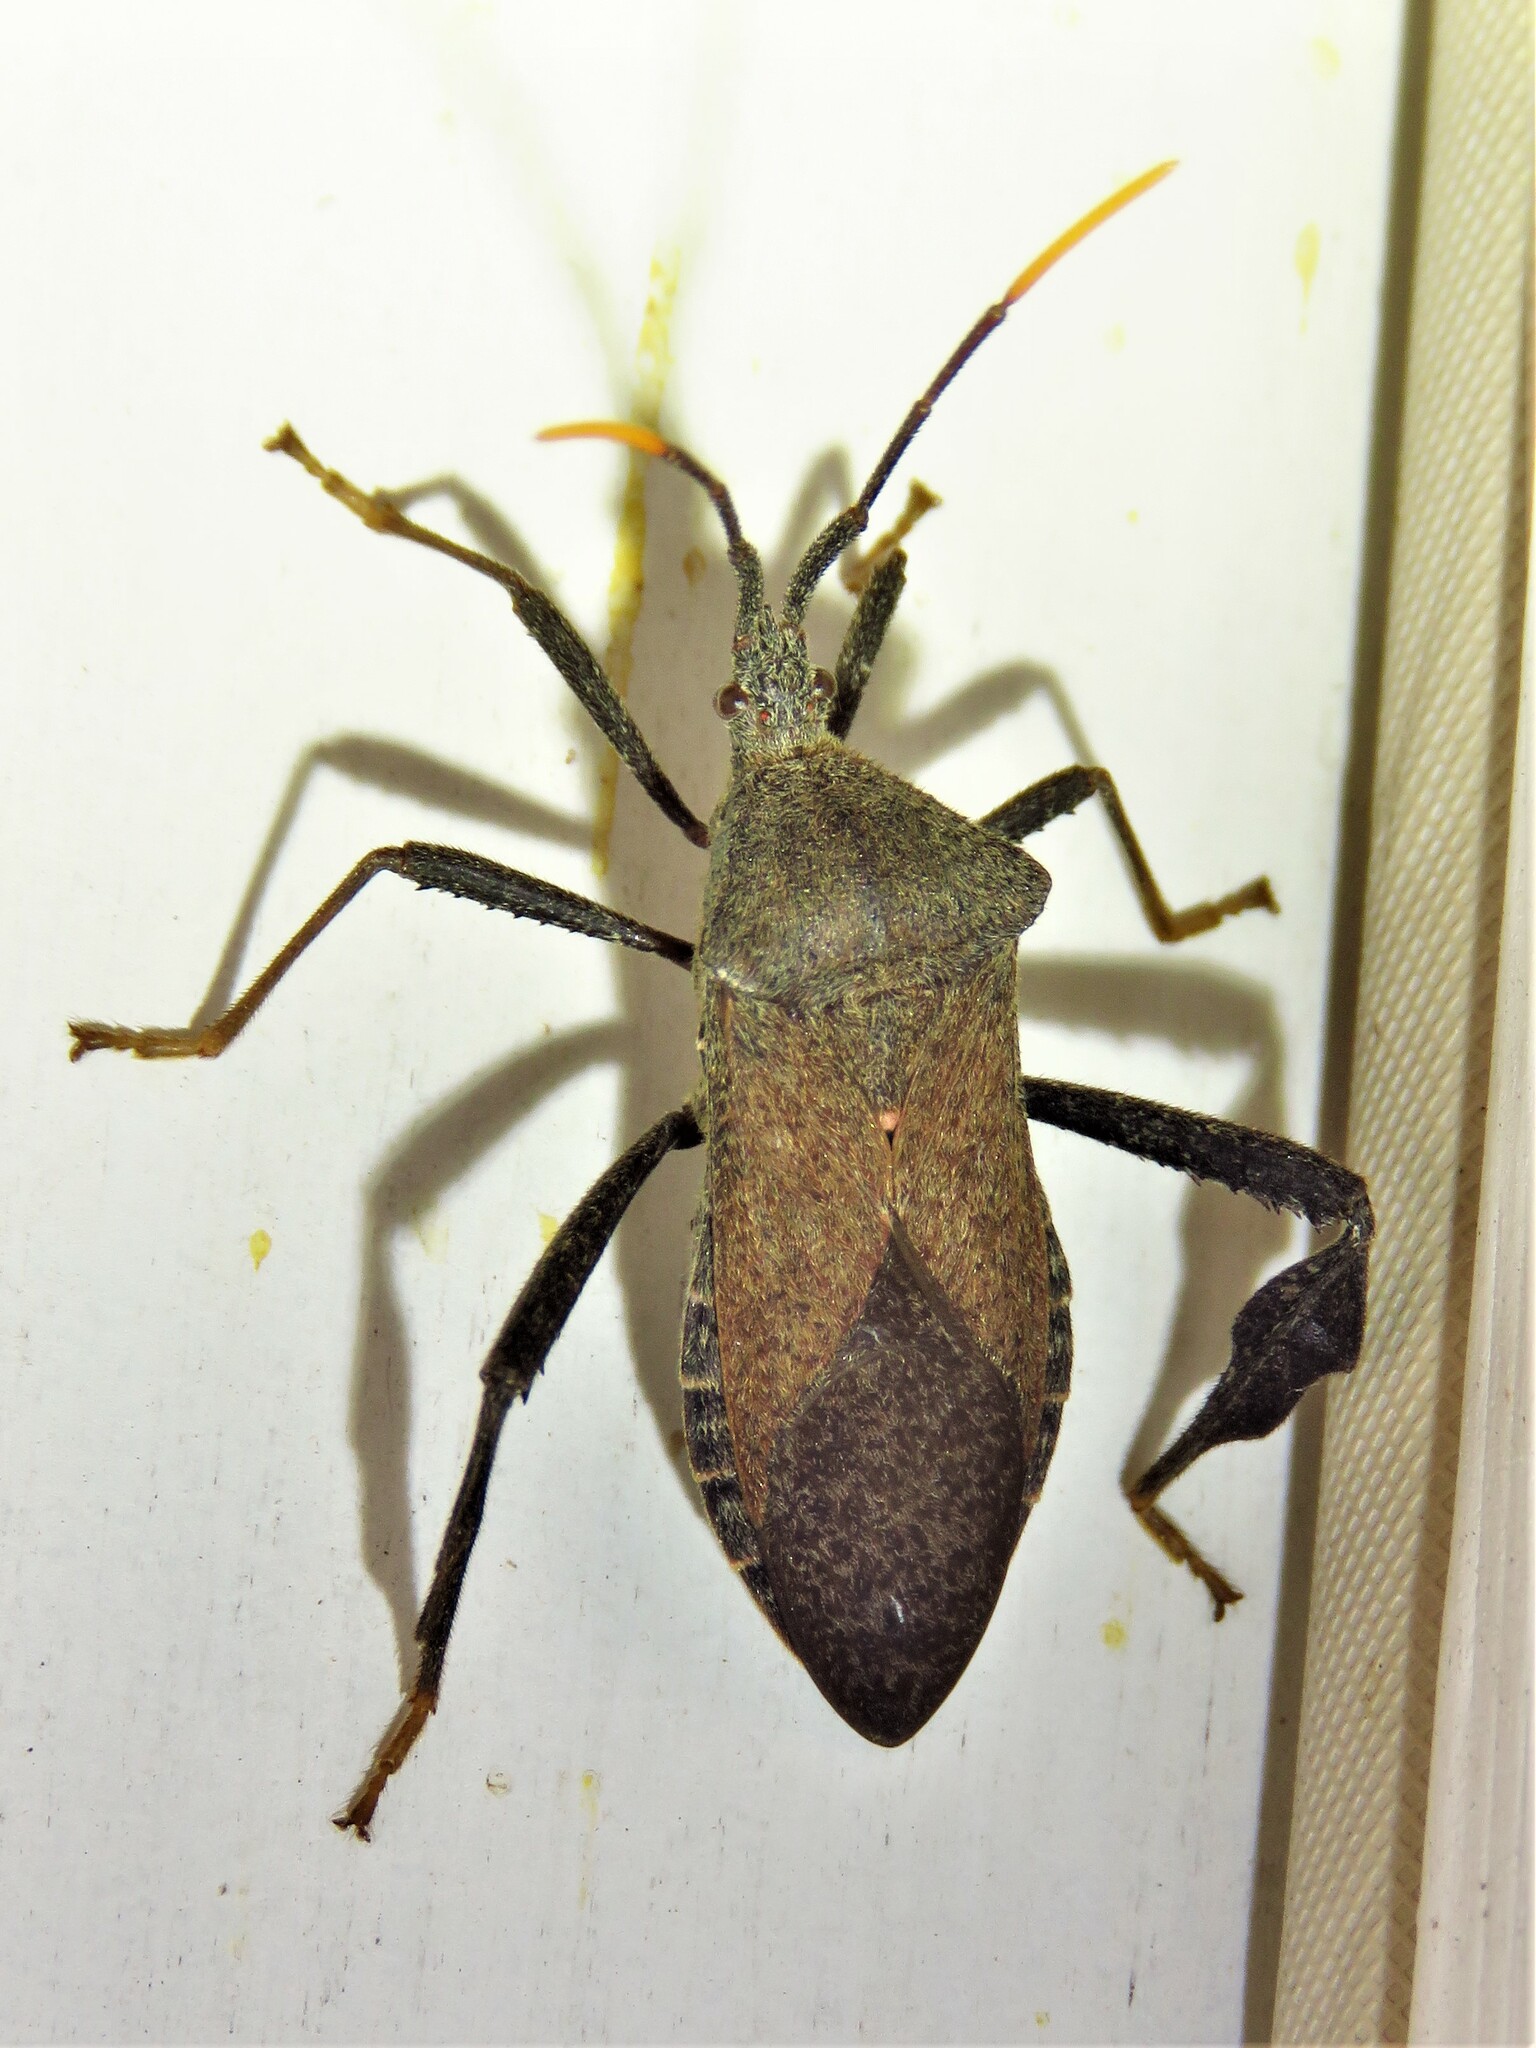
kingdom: Animalia
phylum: Arthropoda
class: Insecta
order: Hemiptera
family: Coreidae
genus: Acanthocephala
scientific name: Acanthocephala terminalis
